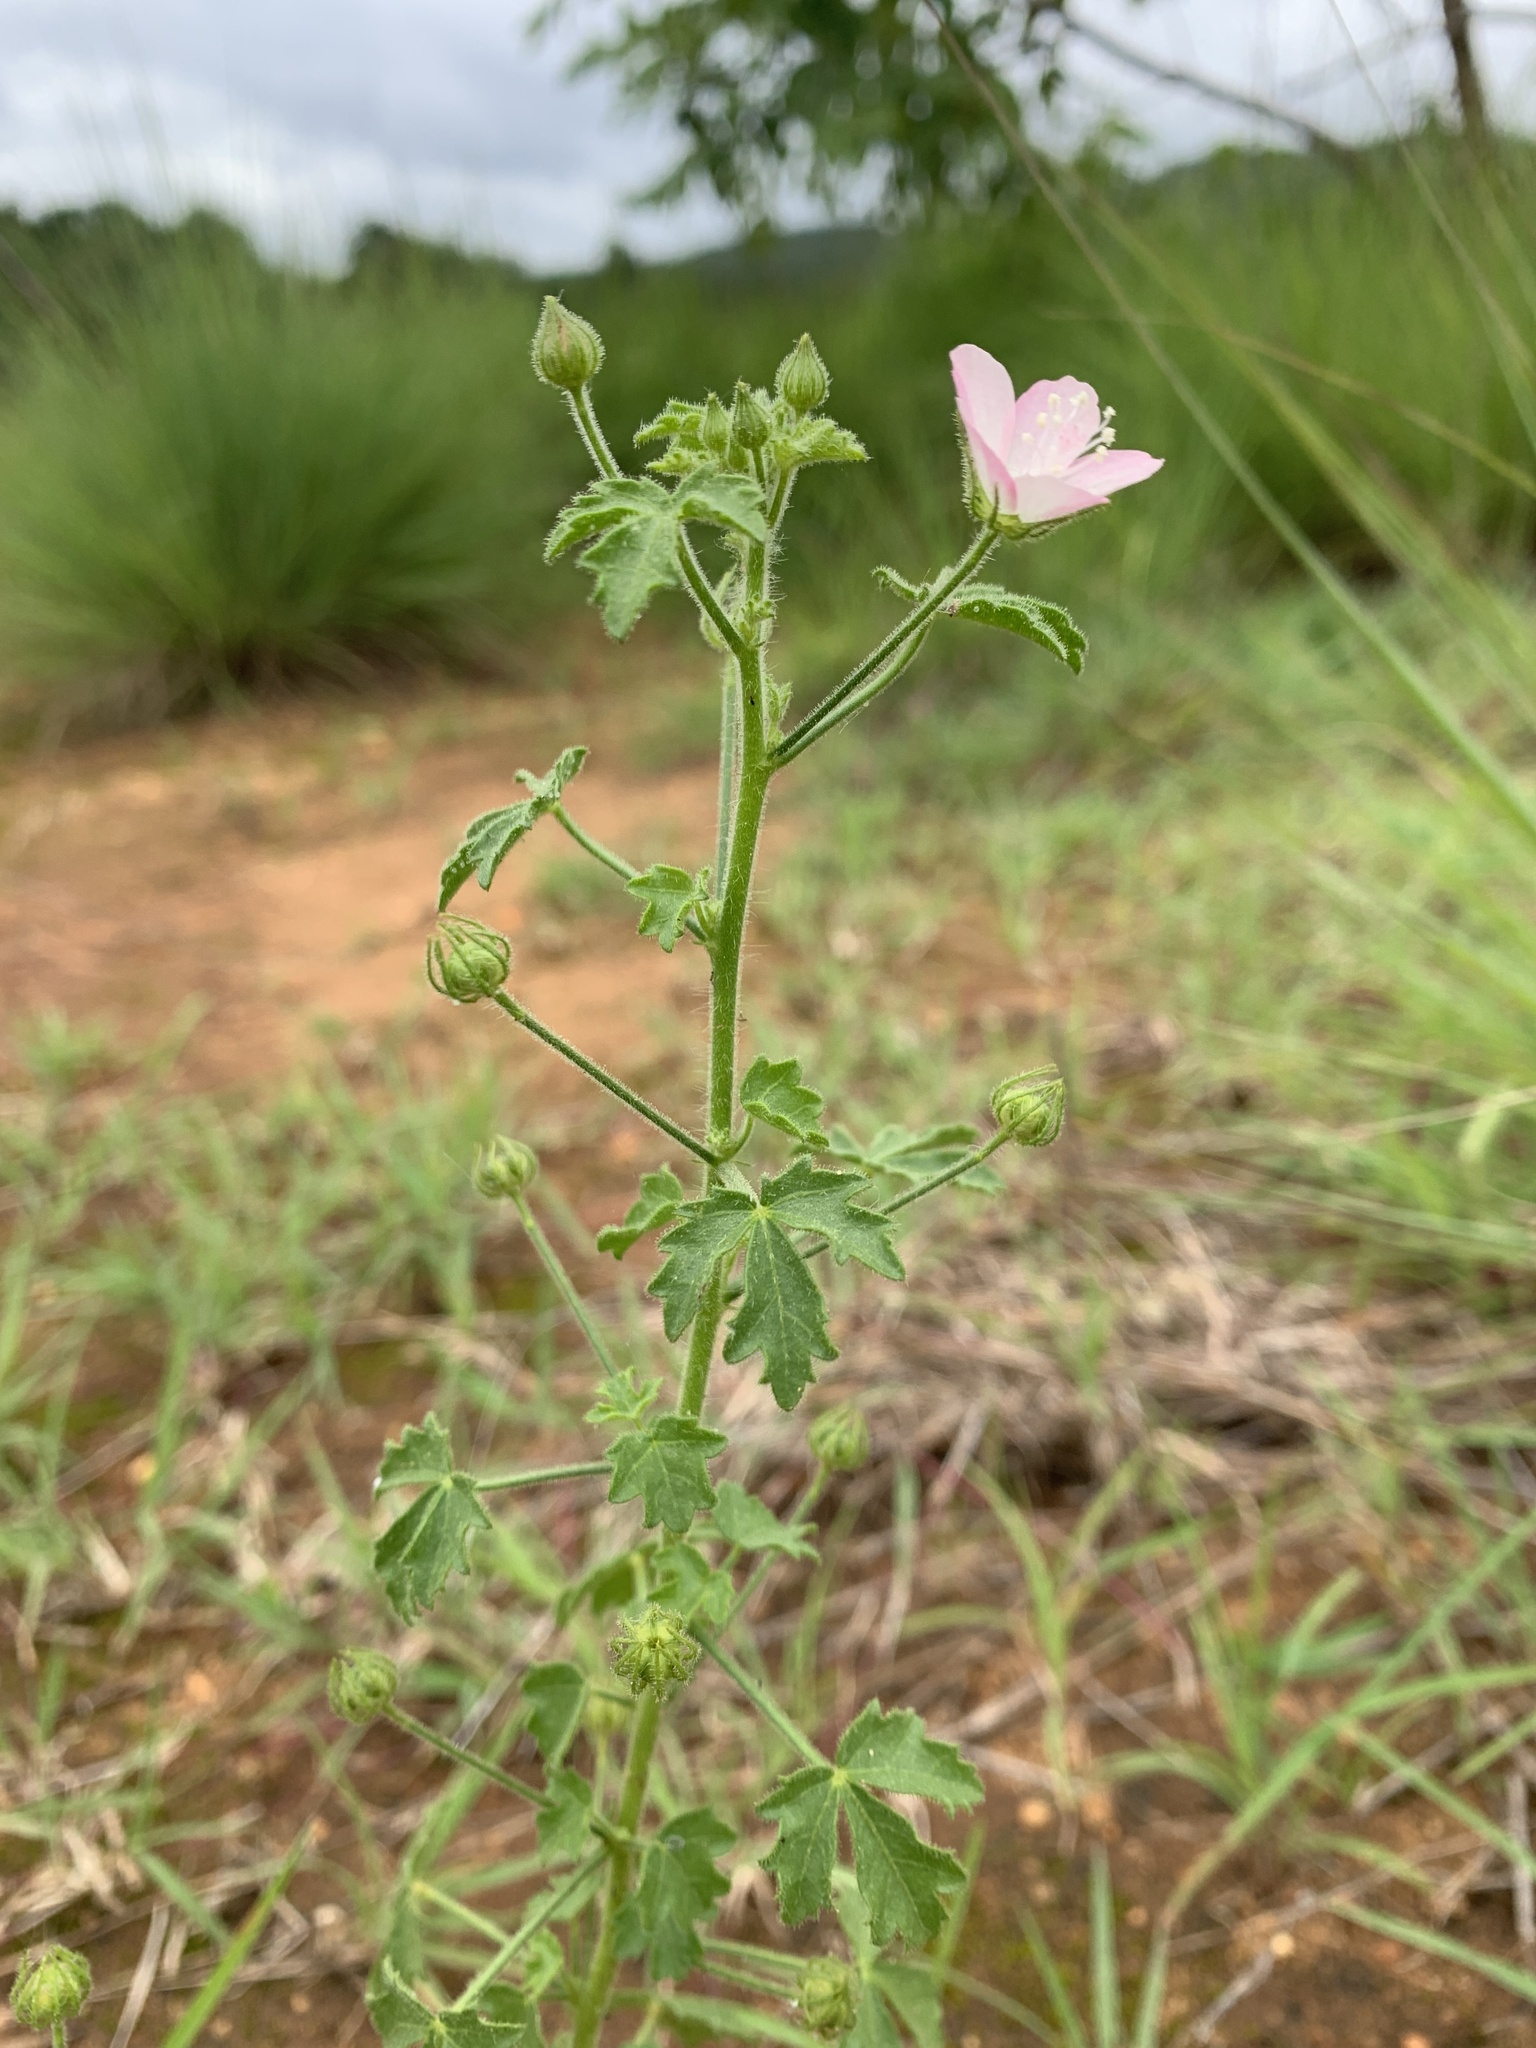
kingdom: Plantae
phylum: Tracheophyta
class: Magnoliopsida
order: Malvales
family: Malvaceae
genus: Pavonia
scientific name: Pavonia zeylanica
